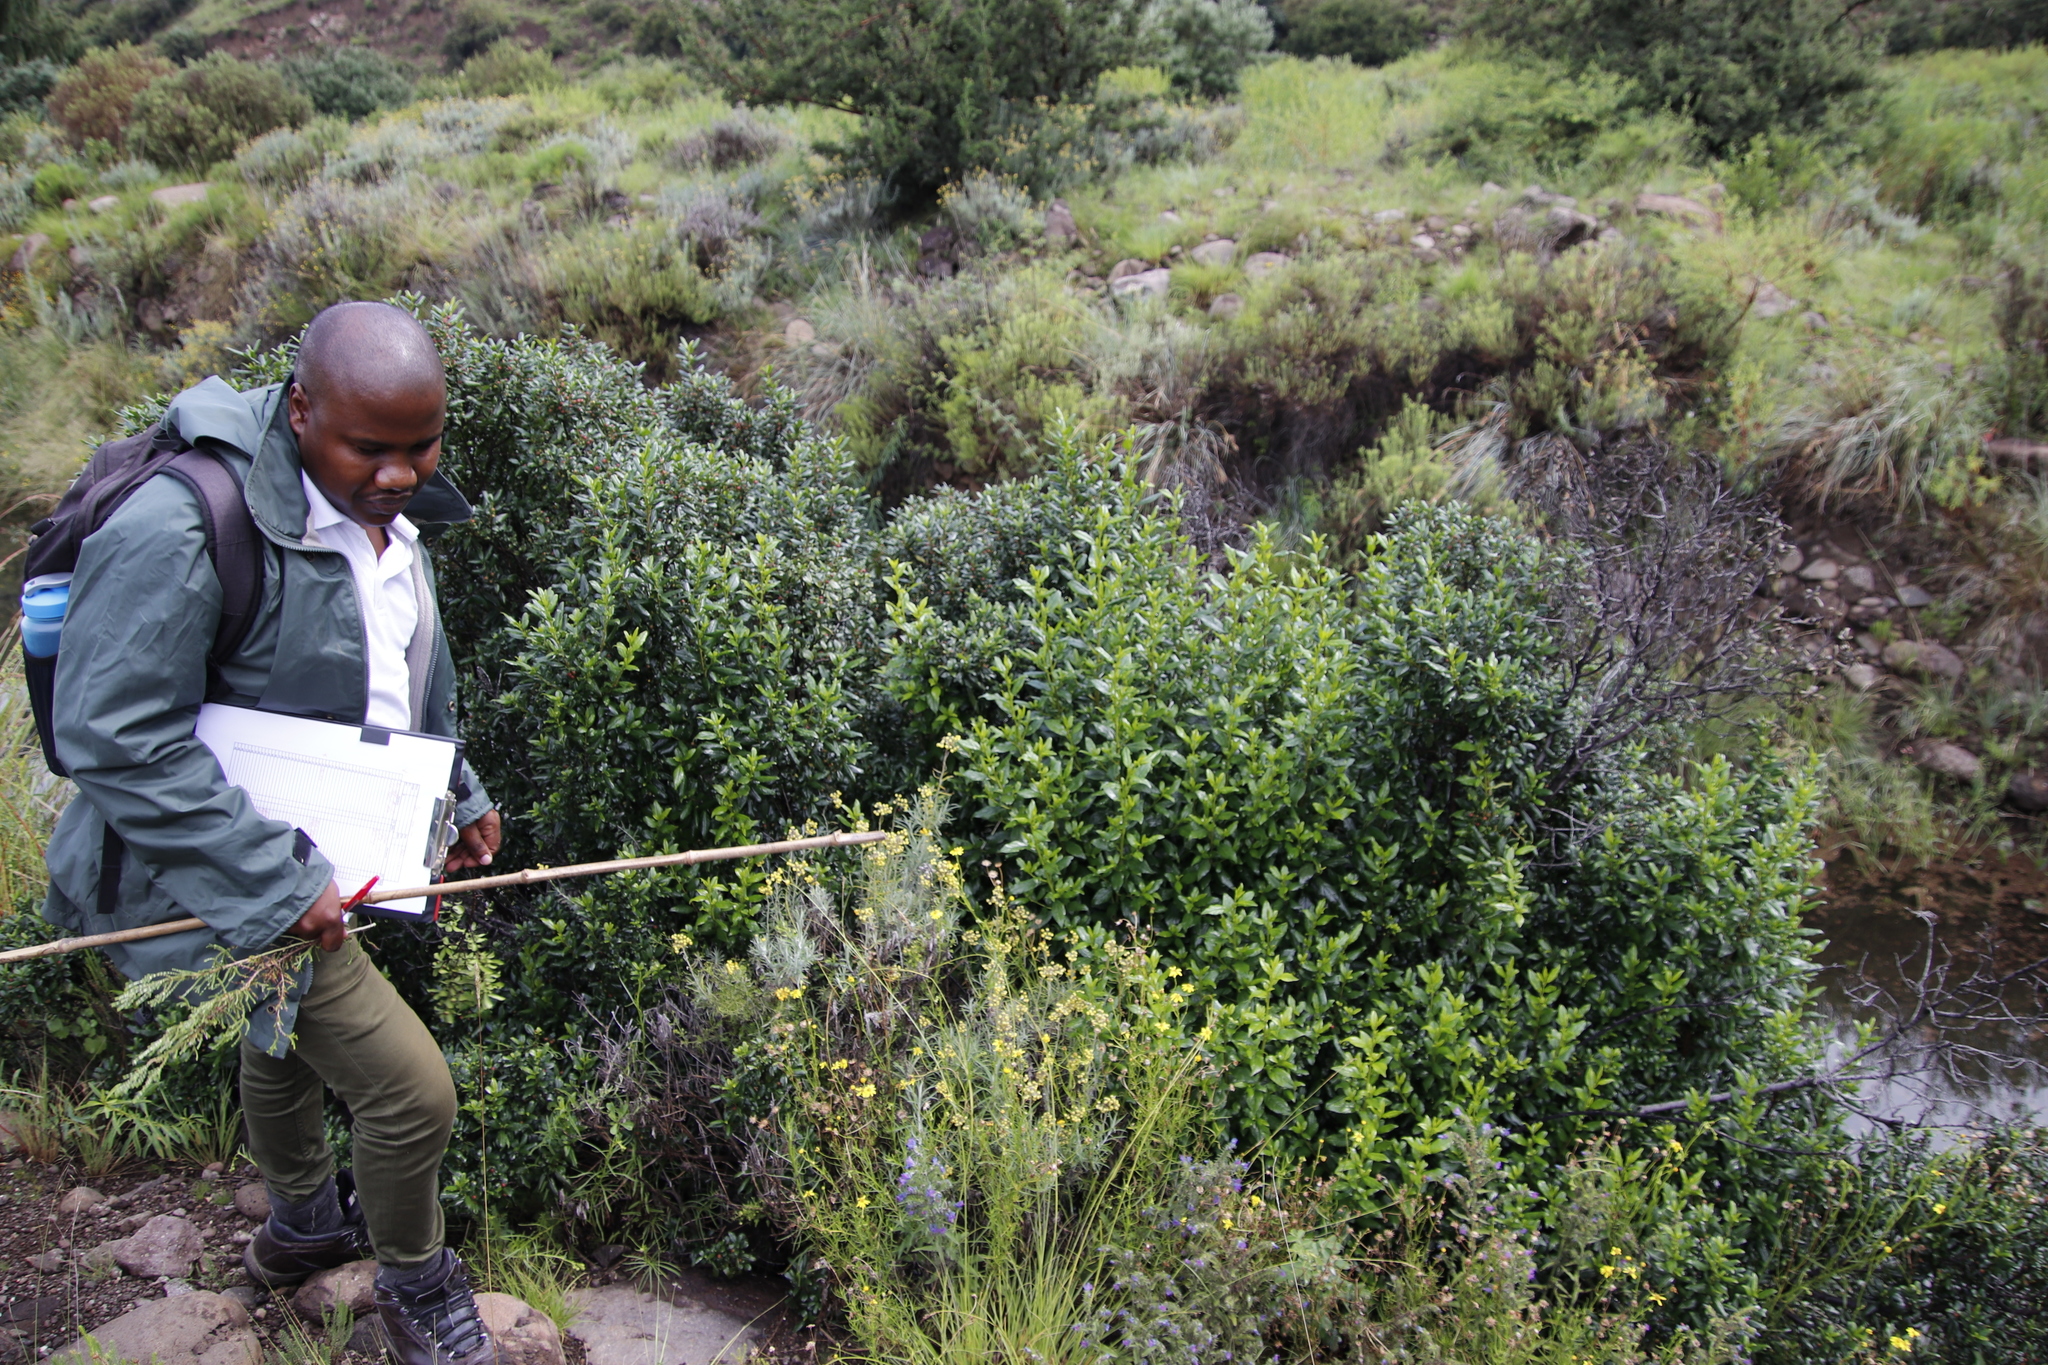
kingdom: Plantae
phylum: Tracheophyta
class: Magnoliopsida
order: Rosales
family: Rhamnaceae
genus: Rhamnus
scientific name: Rhamnus prinoides
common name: Dogwood
